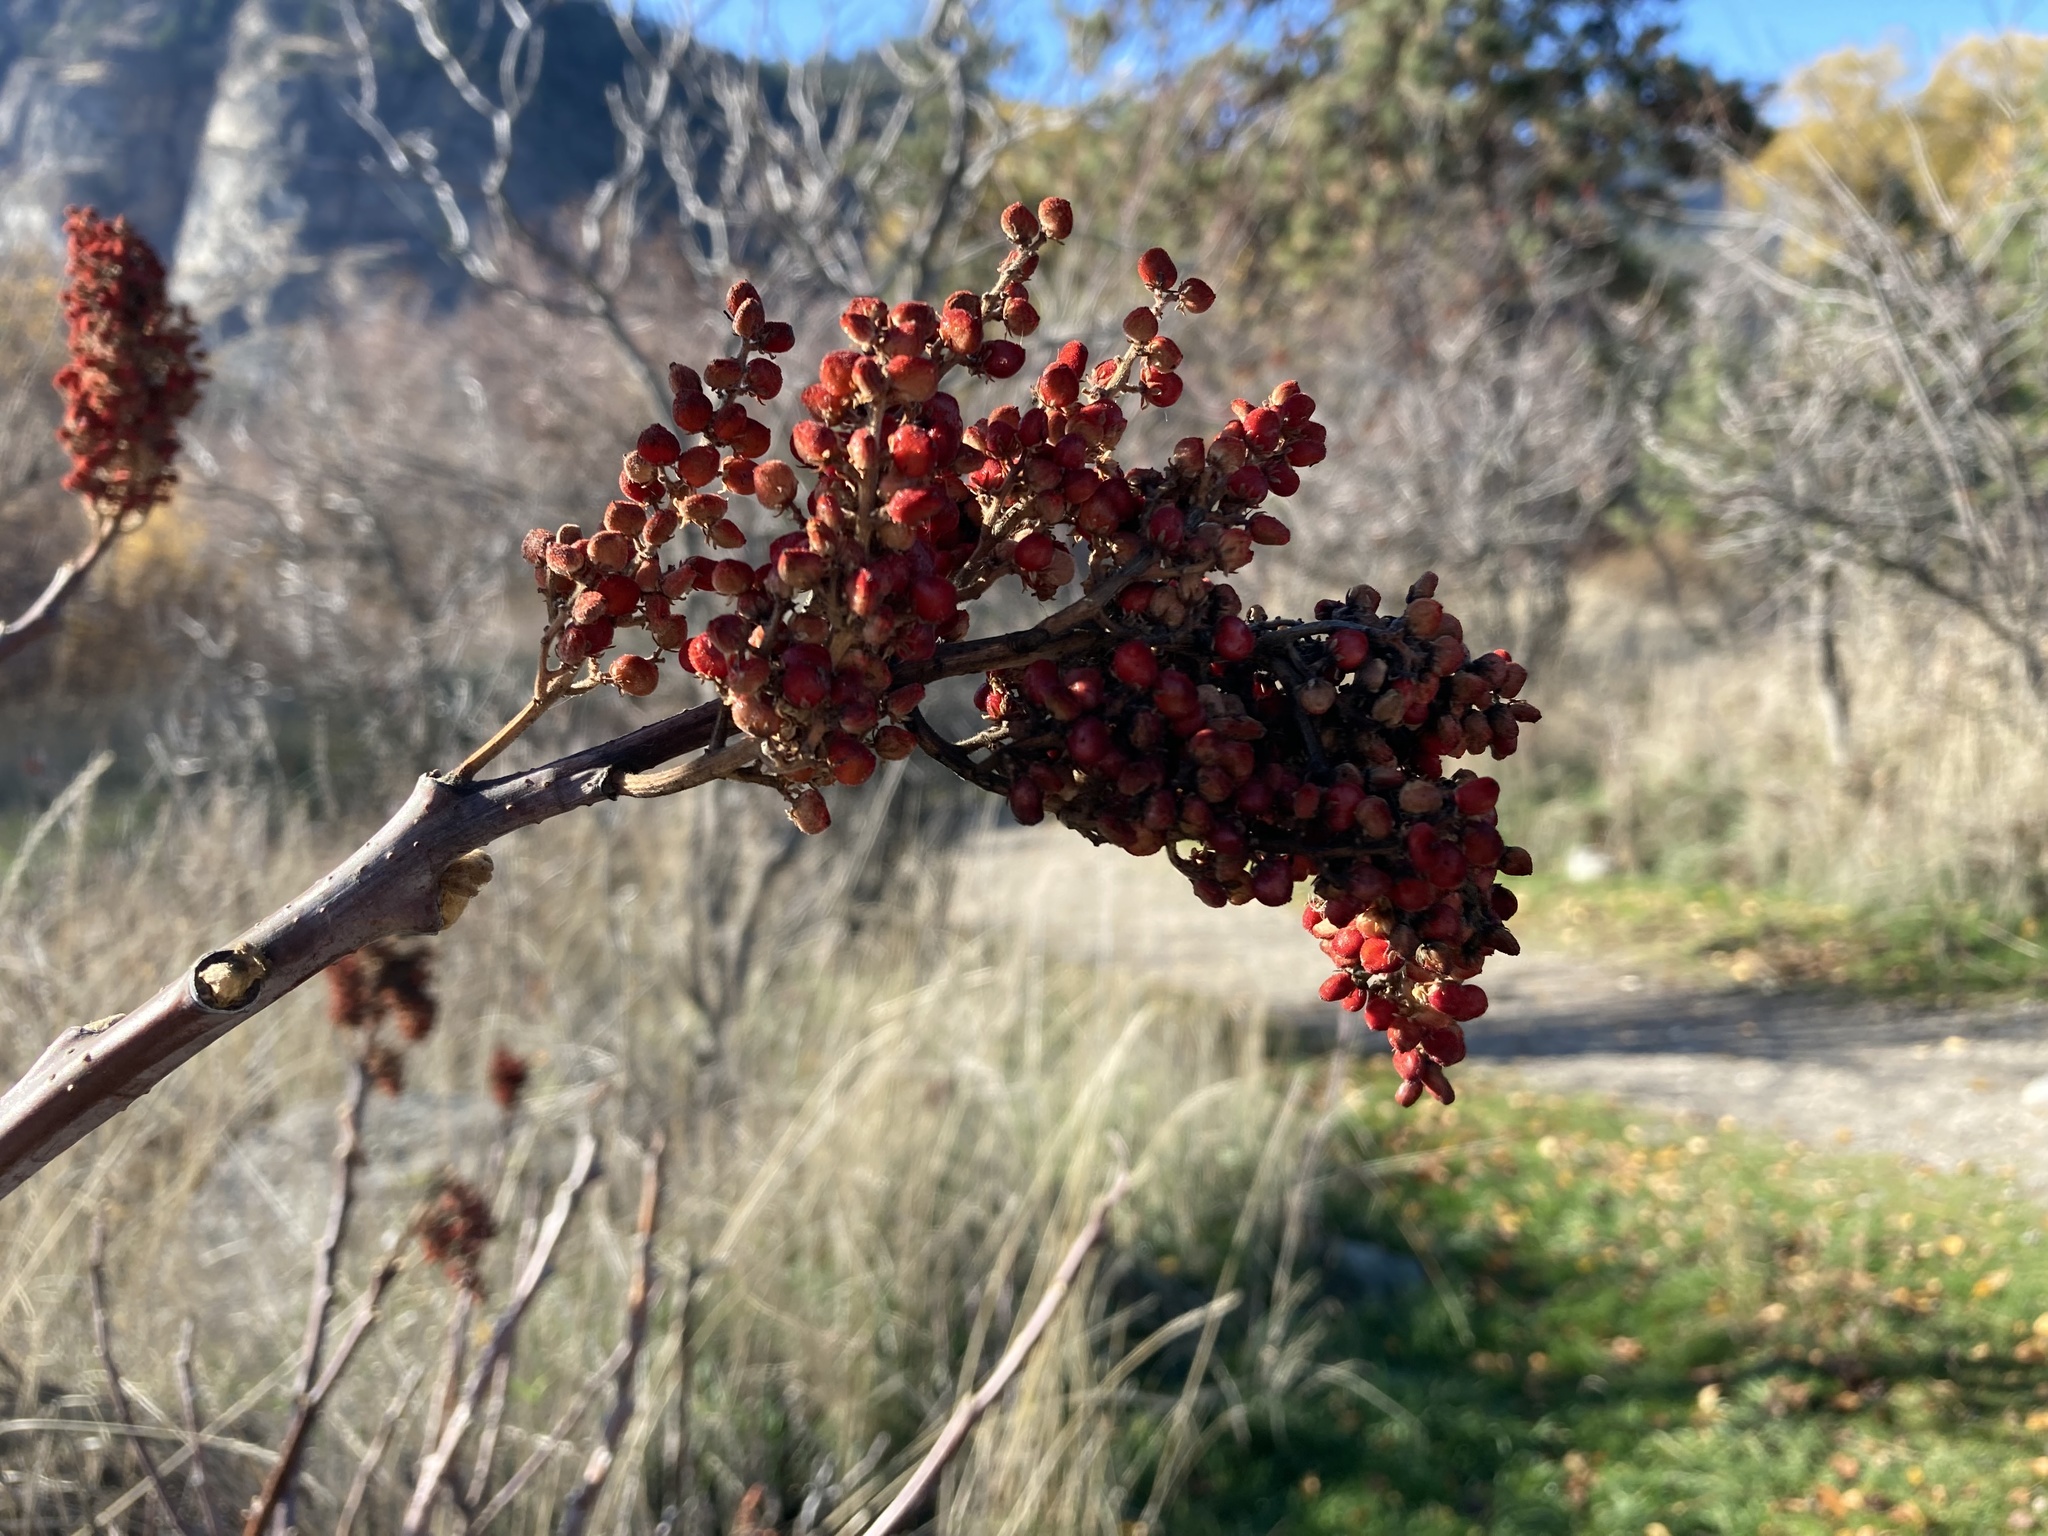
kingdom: Plantae
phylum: Tracheophyta
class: Magnoliopsida
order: Sapindales
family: Anacardiaceae
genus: Rhus
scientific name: Rhus glabra
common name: Scarlet sumac
